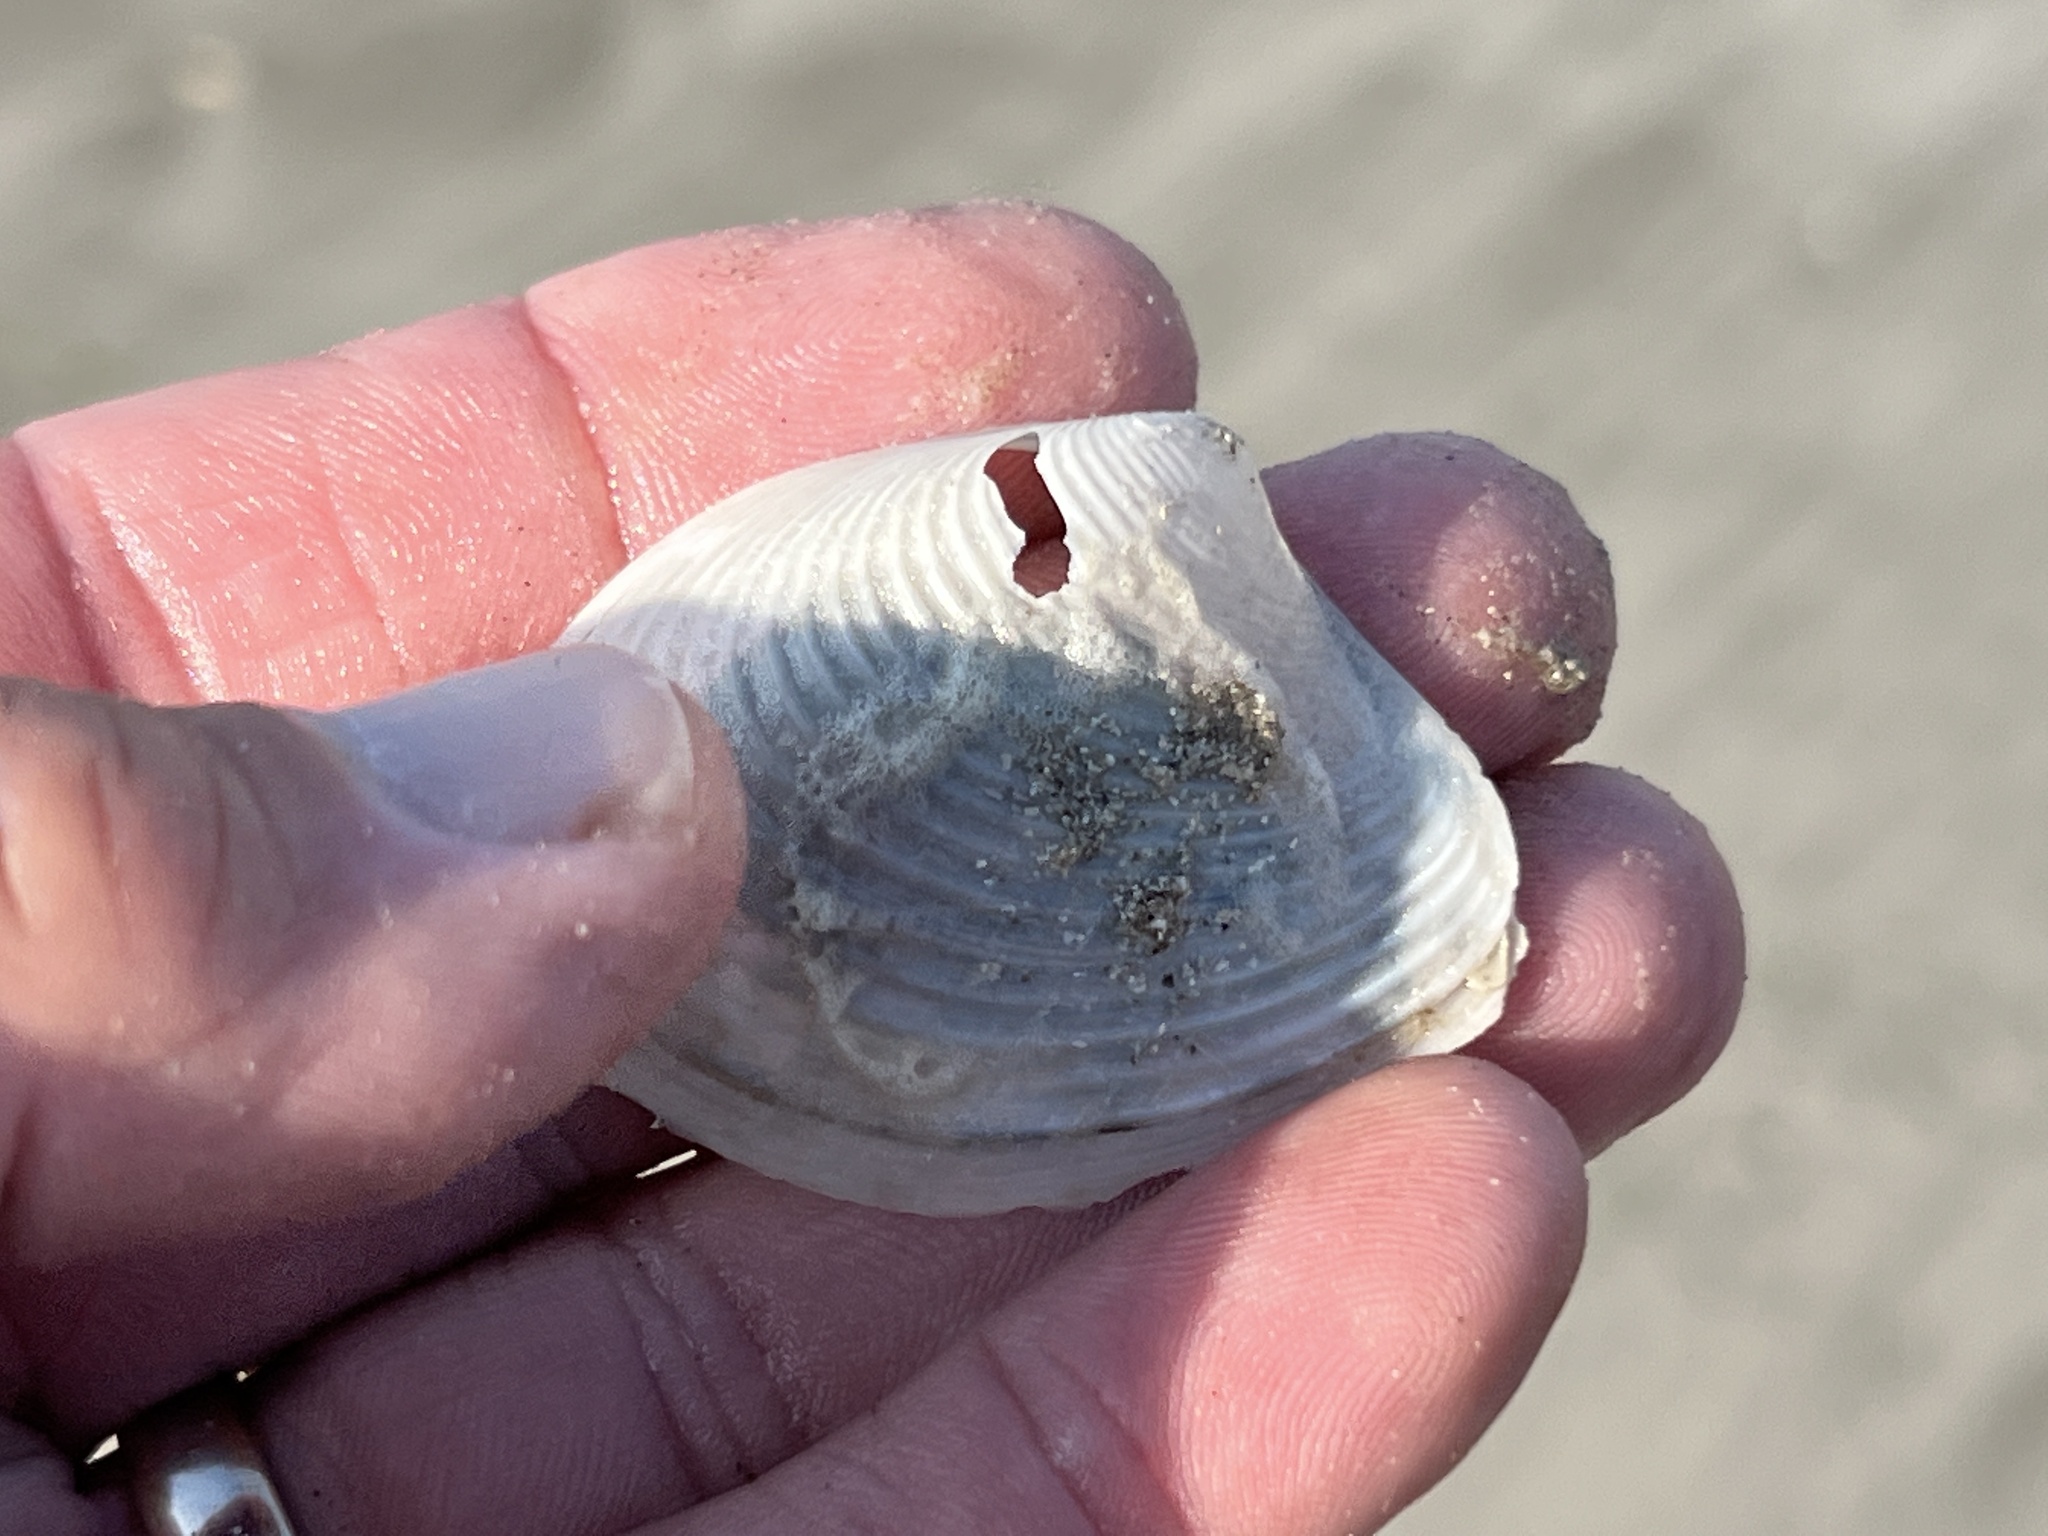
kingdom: Animalia
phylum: Mollusca
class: Bivalvia
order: Venerida
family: Anatinellidae
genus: Raeta
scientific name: Raeta plicatella
